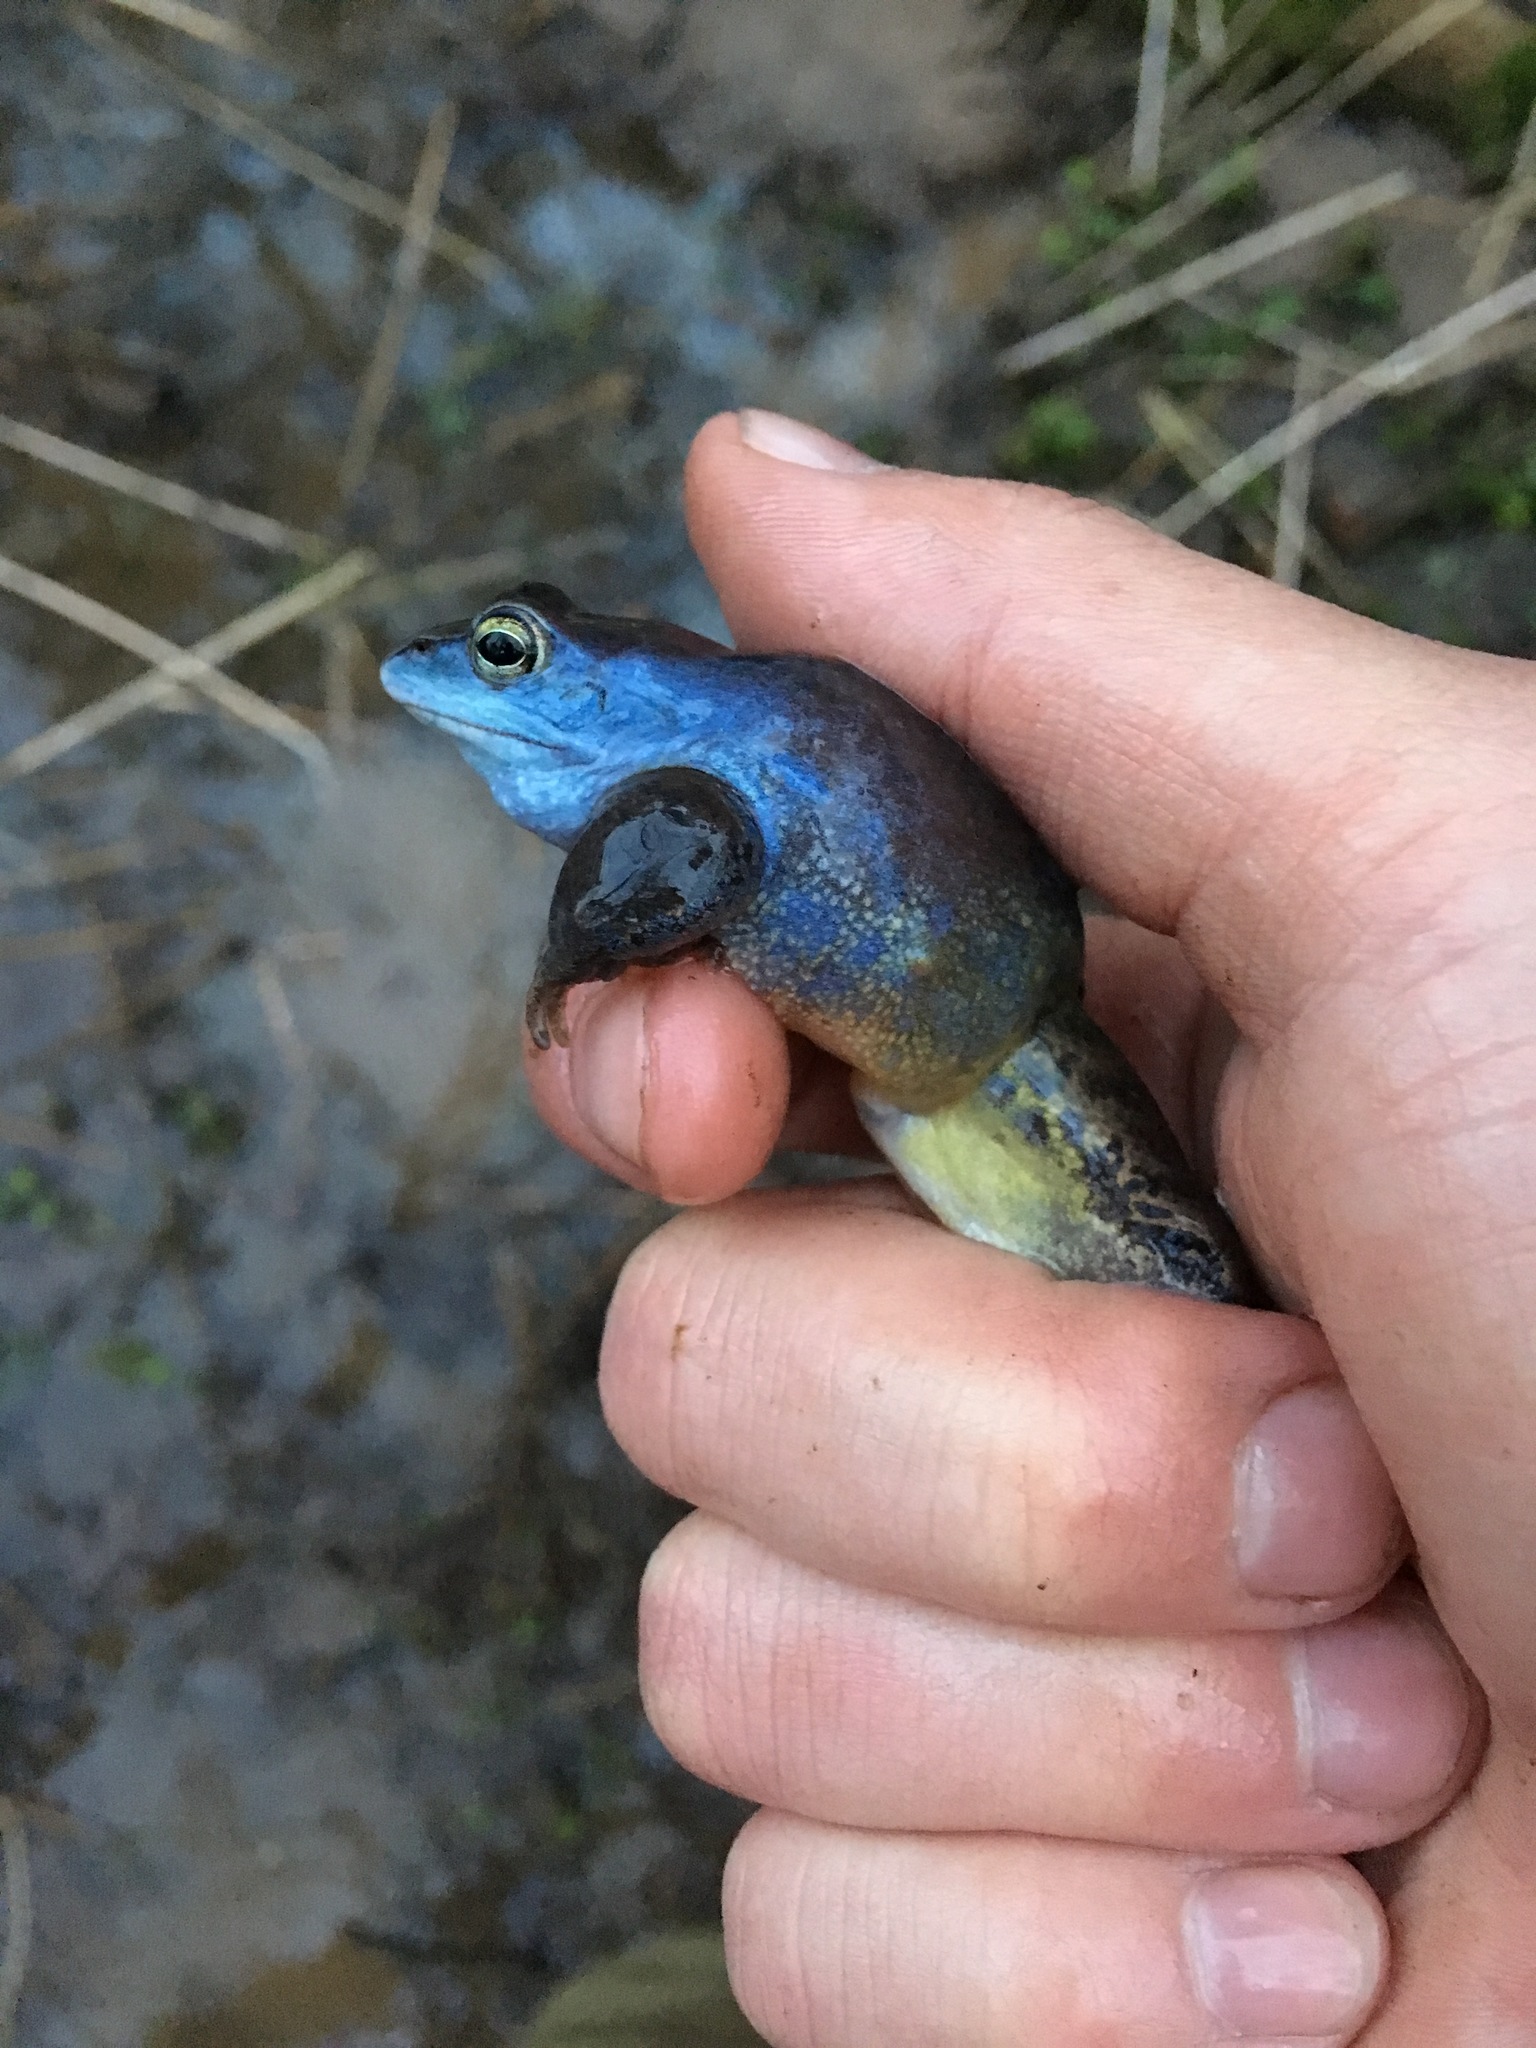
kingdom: Animalia
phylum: Chordata
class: Amphibia
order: Anura
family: Ranidae
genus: Rana
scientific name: Rana arvalis
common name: Moor frog
